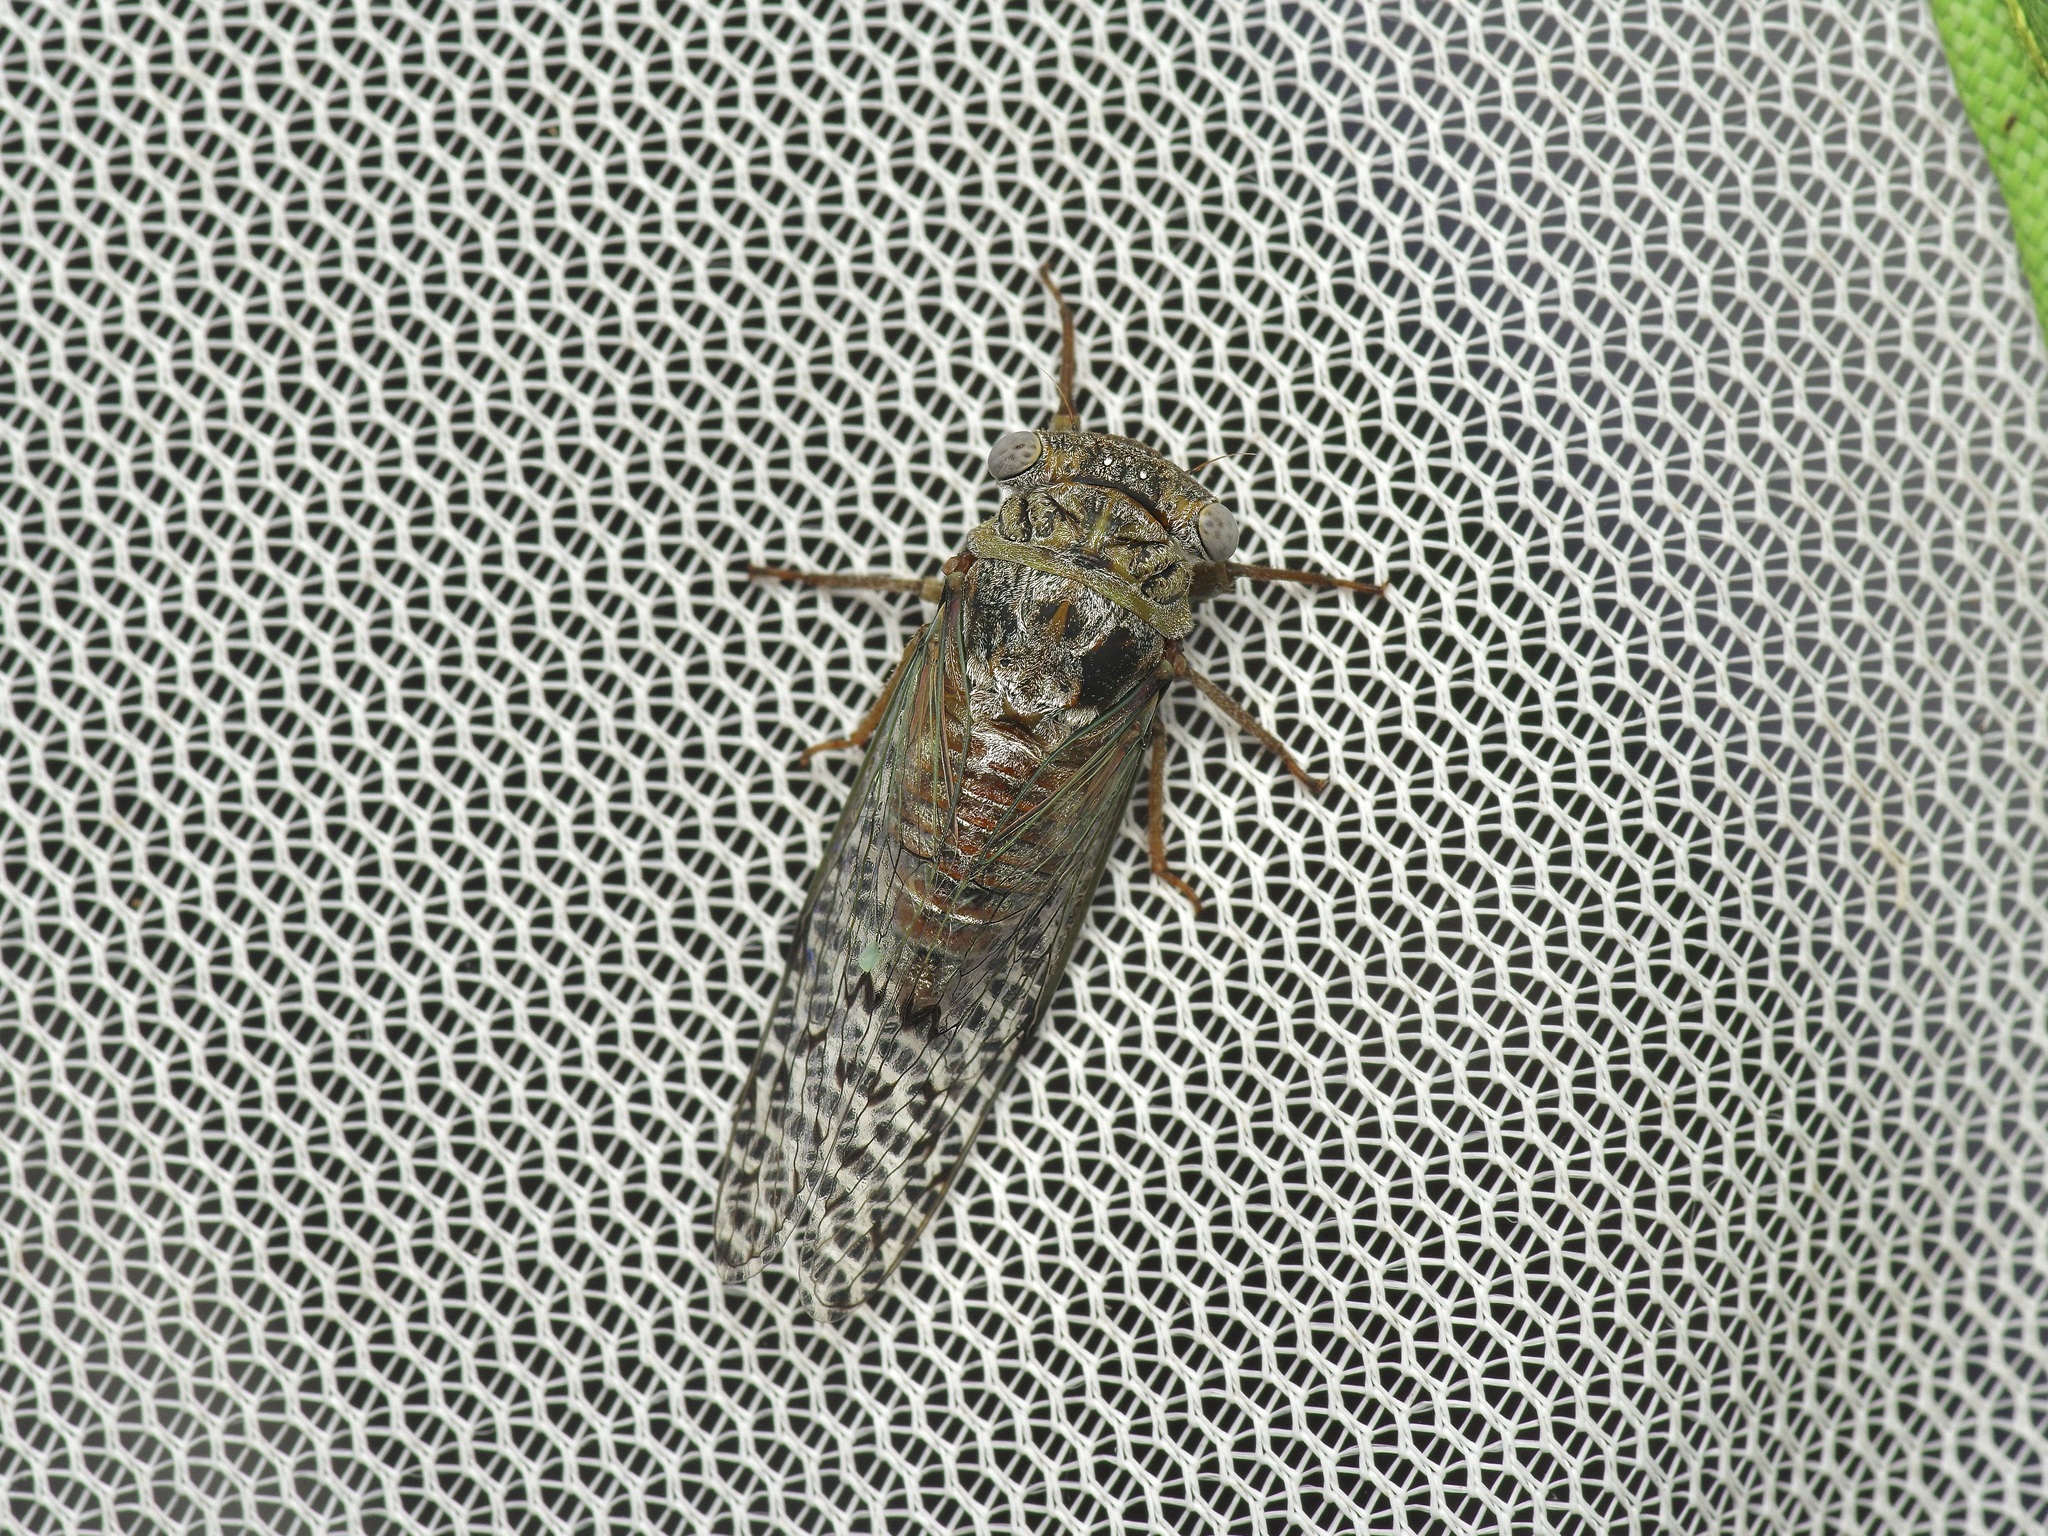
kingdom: Animalia
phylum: Arthropoda
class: Insecta
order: Hemiptera
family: Cicadidae
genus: Pacarina
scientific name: Pacarina puella
